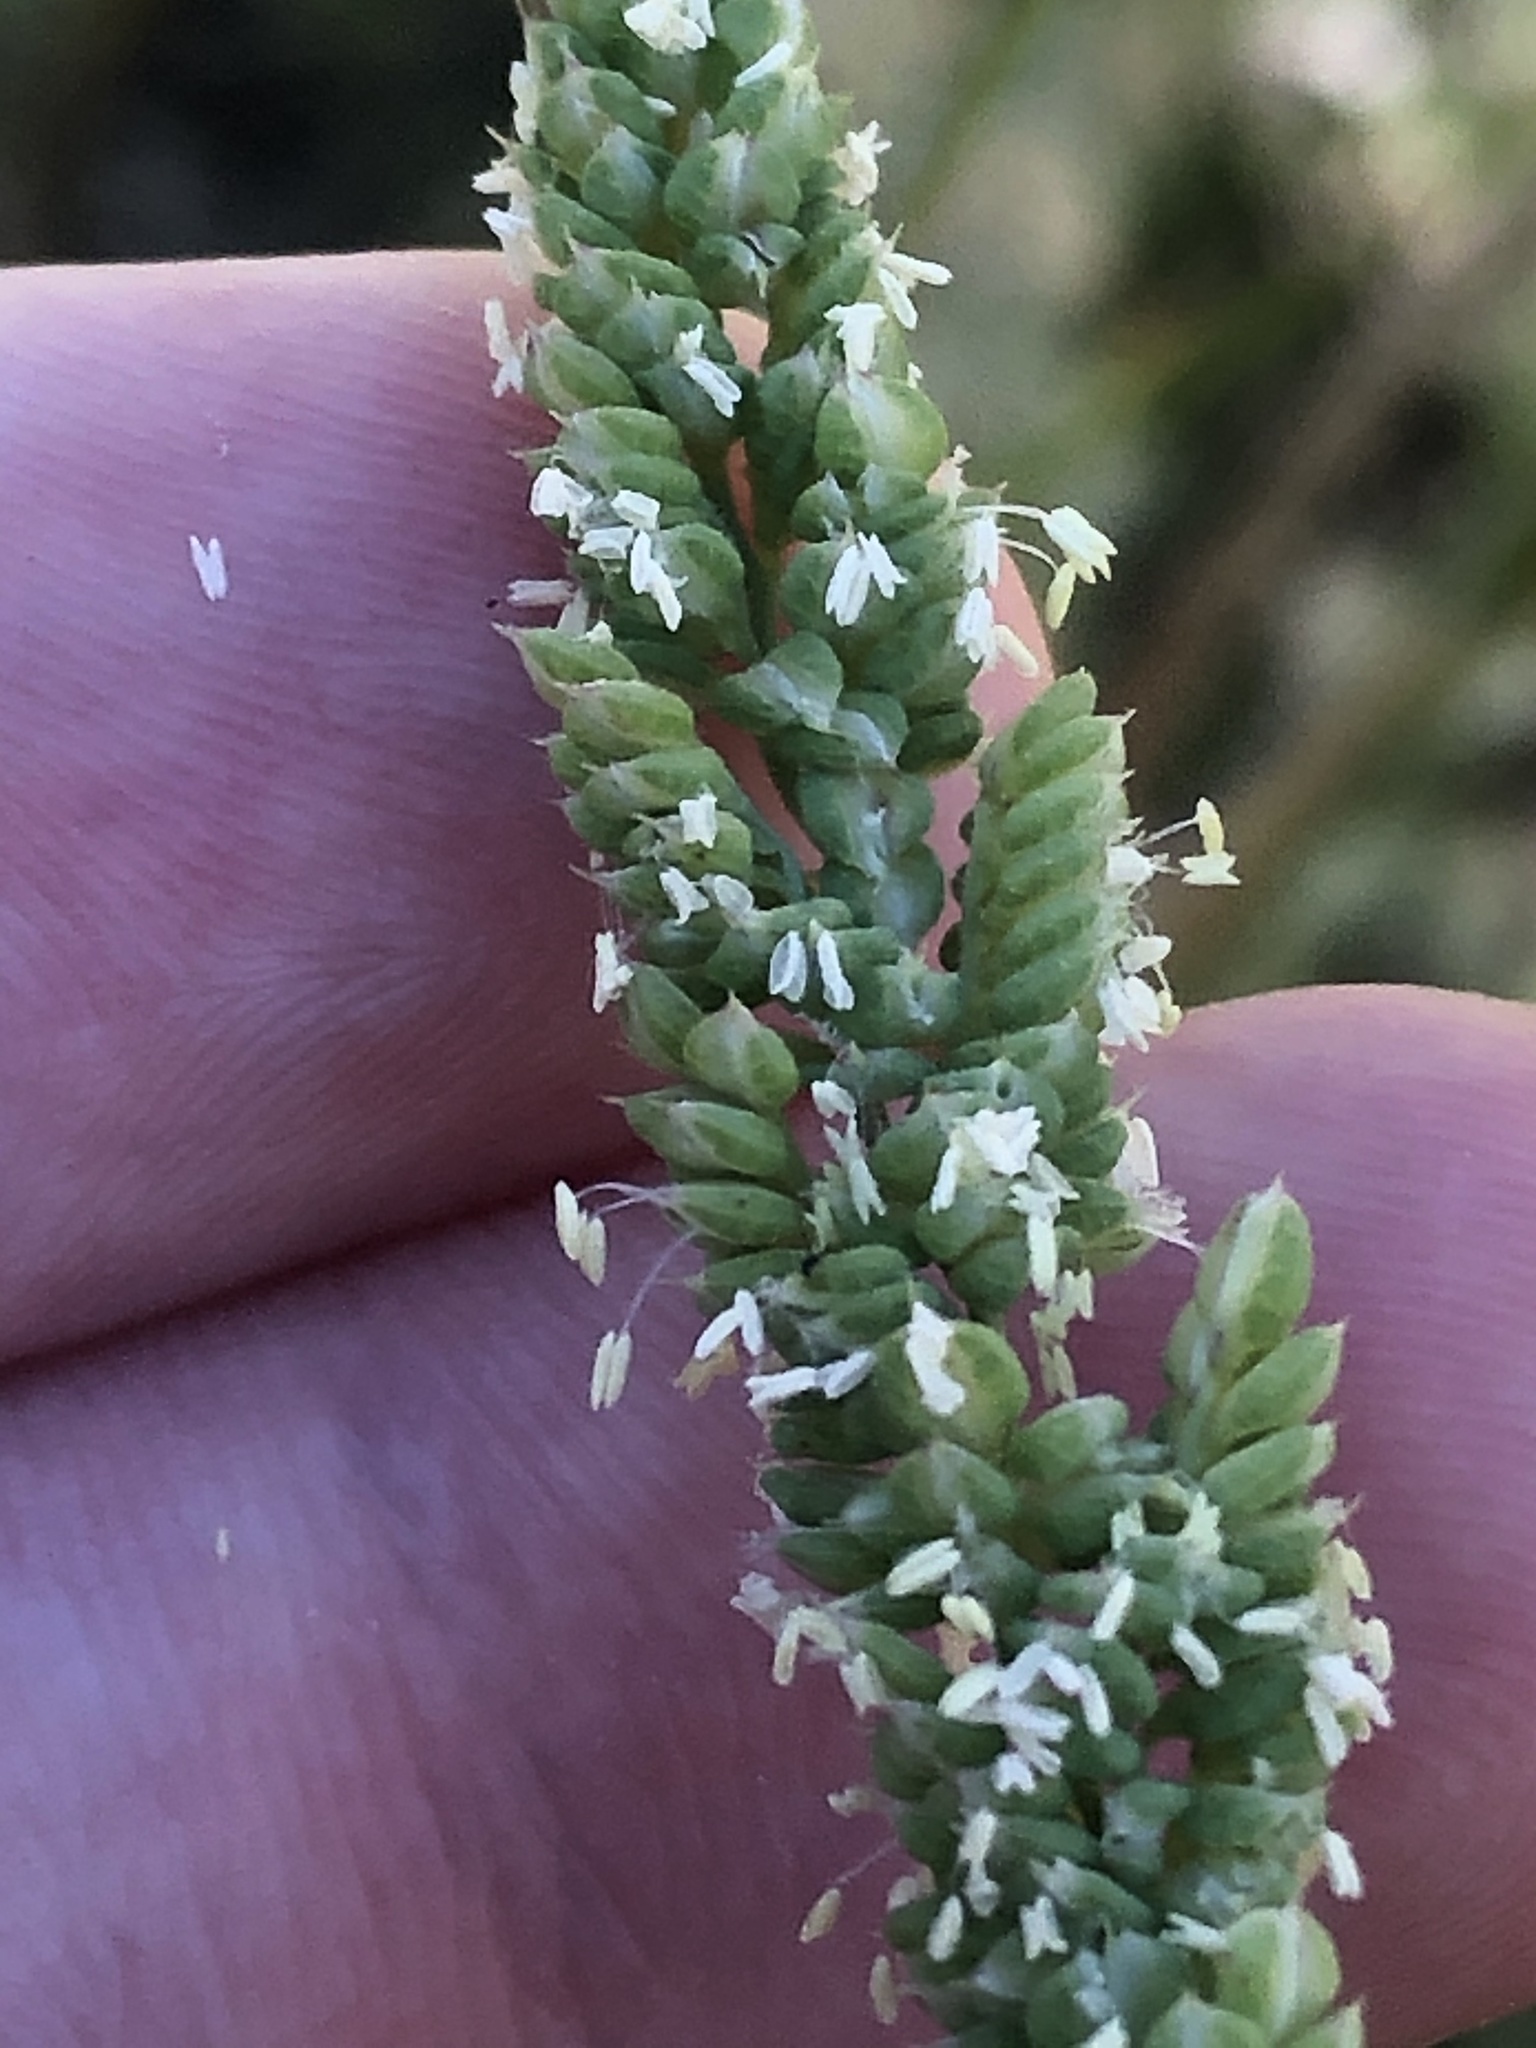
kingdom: Plantae
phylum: Tracheophyta
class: Liliopsida
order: Poales
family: Poaceae
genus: Beckmannia
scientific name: Beckmannia syzigachne
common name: American slough-grass
